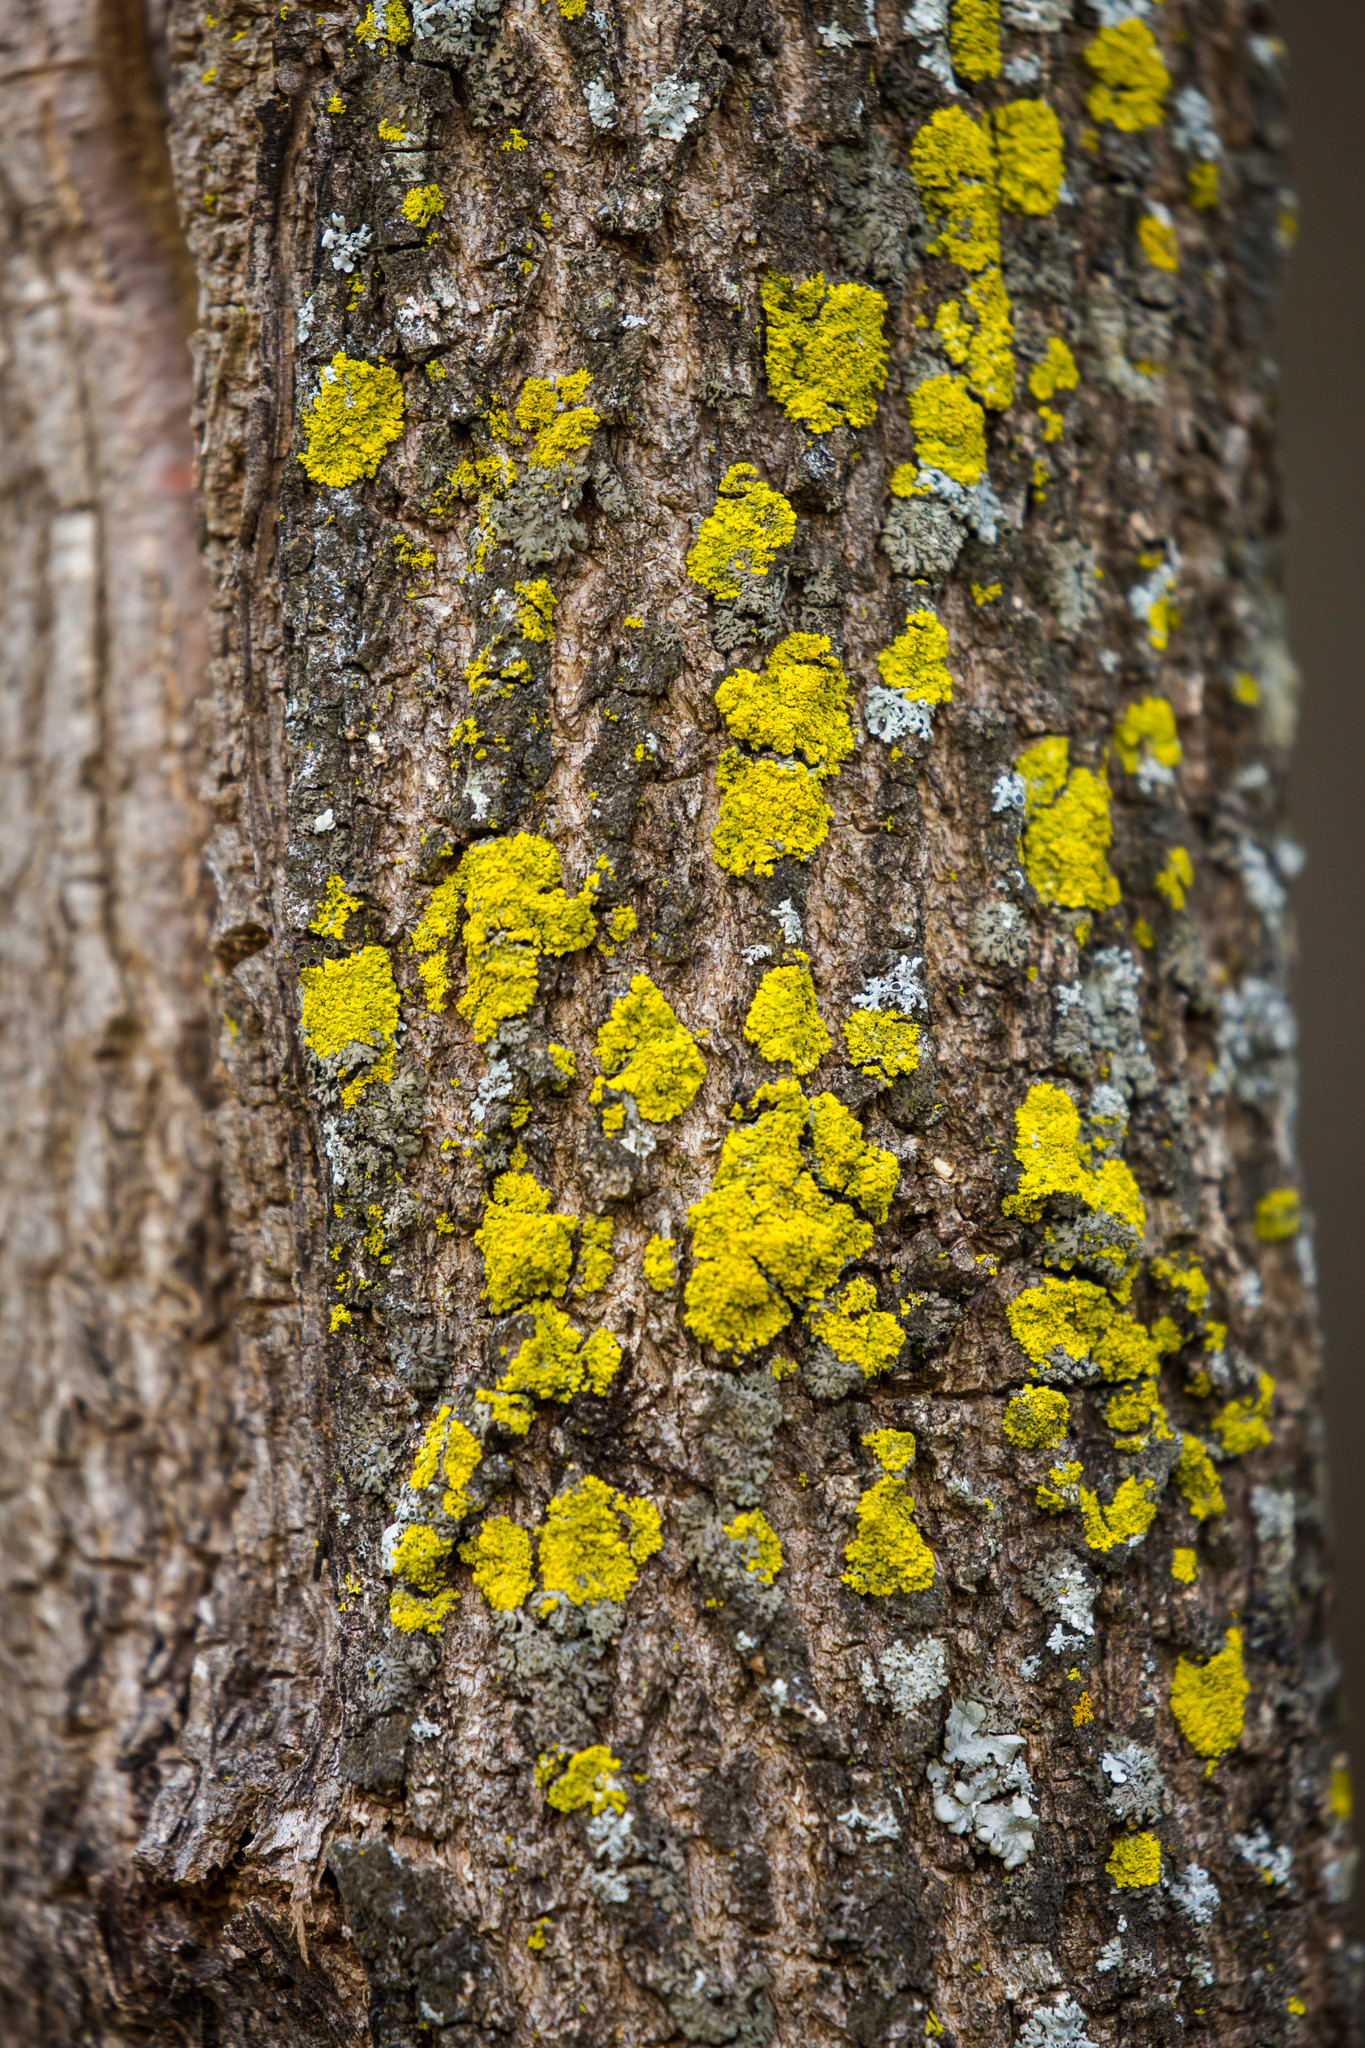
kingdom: Fungi
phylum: Ascomycota
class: Candelariomycetes
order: Candelariales
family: Candelariaceae
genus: Candelaria
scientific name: Candelaria concolor
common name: Candleflame lichen
